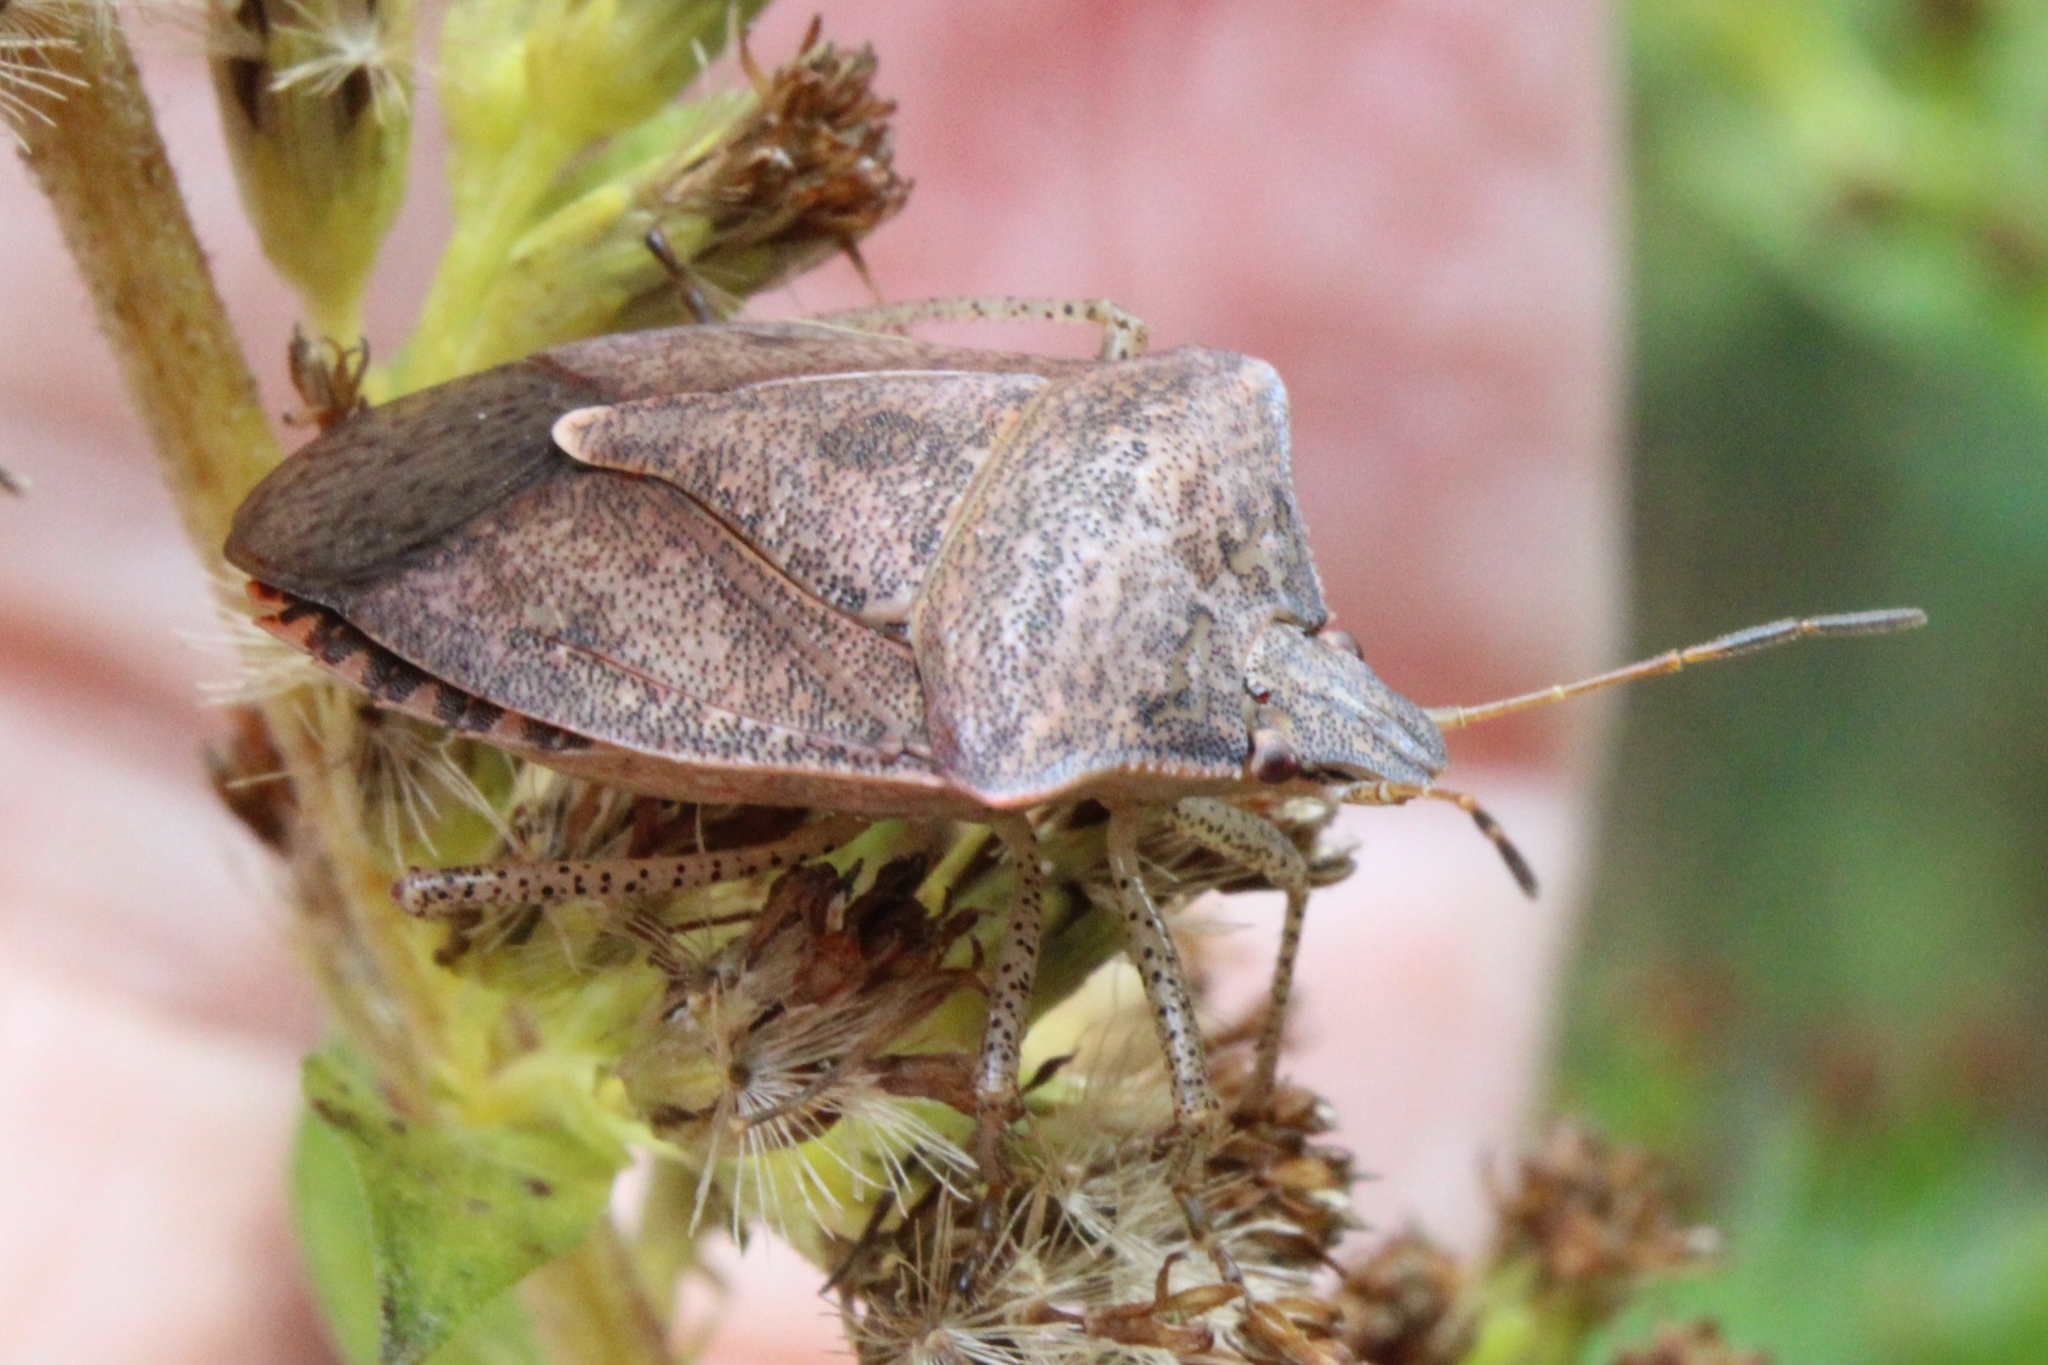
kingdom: Animalia
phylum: Arthropoda
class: Insecta
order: Hemiptera
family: Pentatomidae
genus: Euschistus
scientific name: Euschistus servus
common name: Brown stink bug
